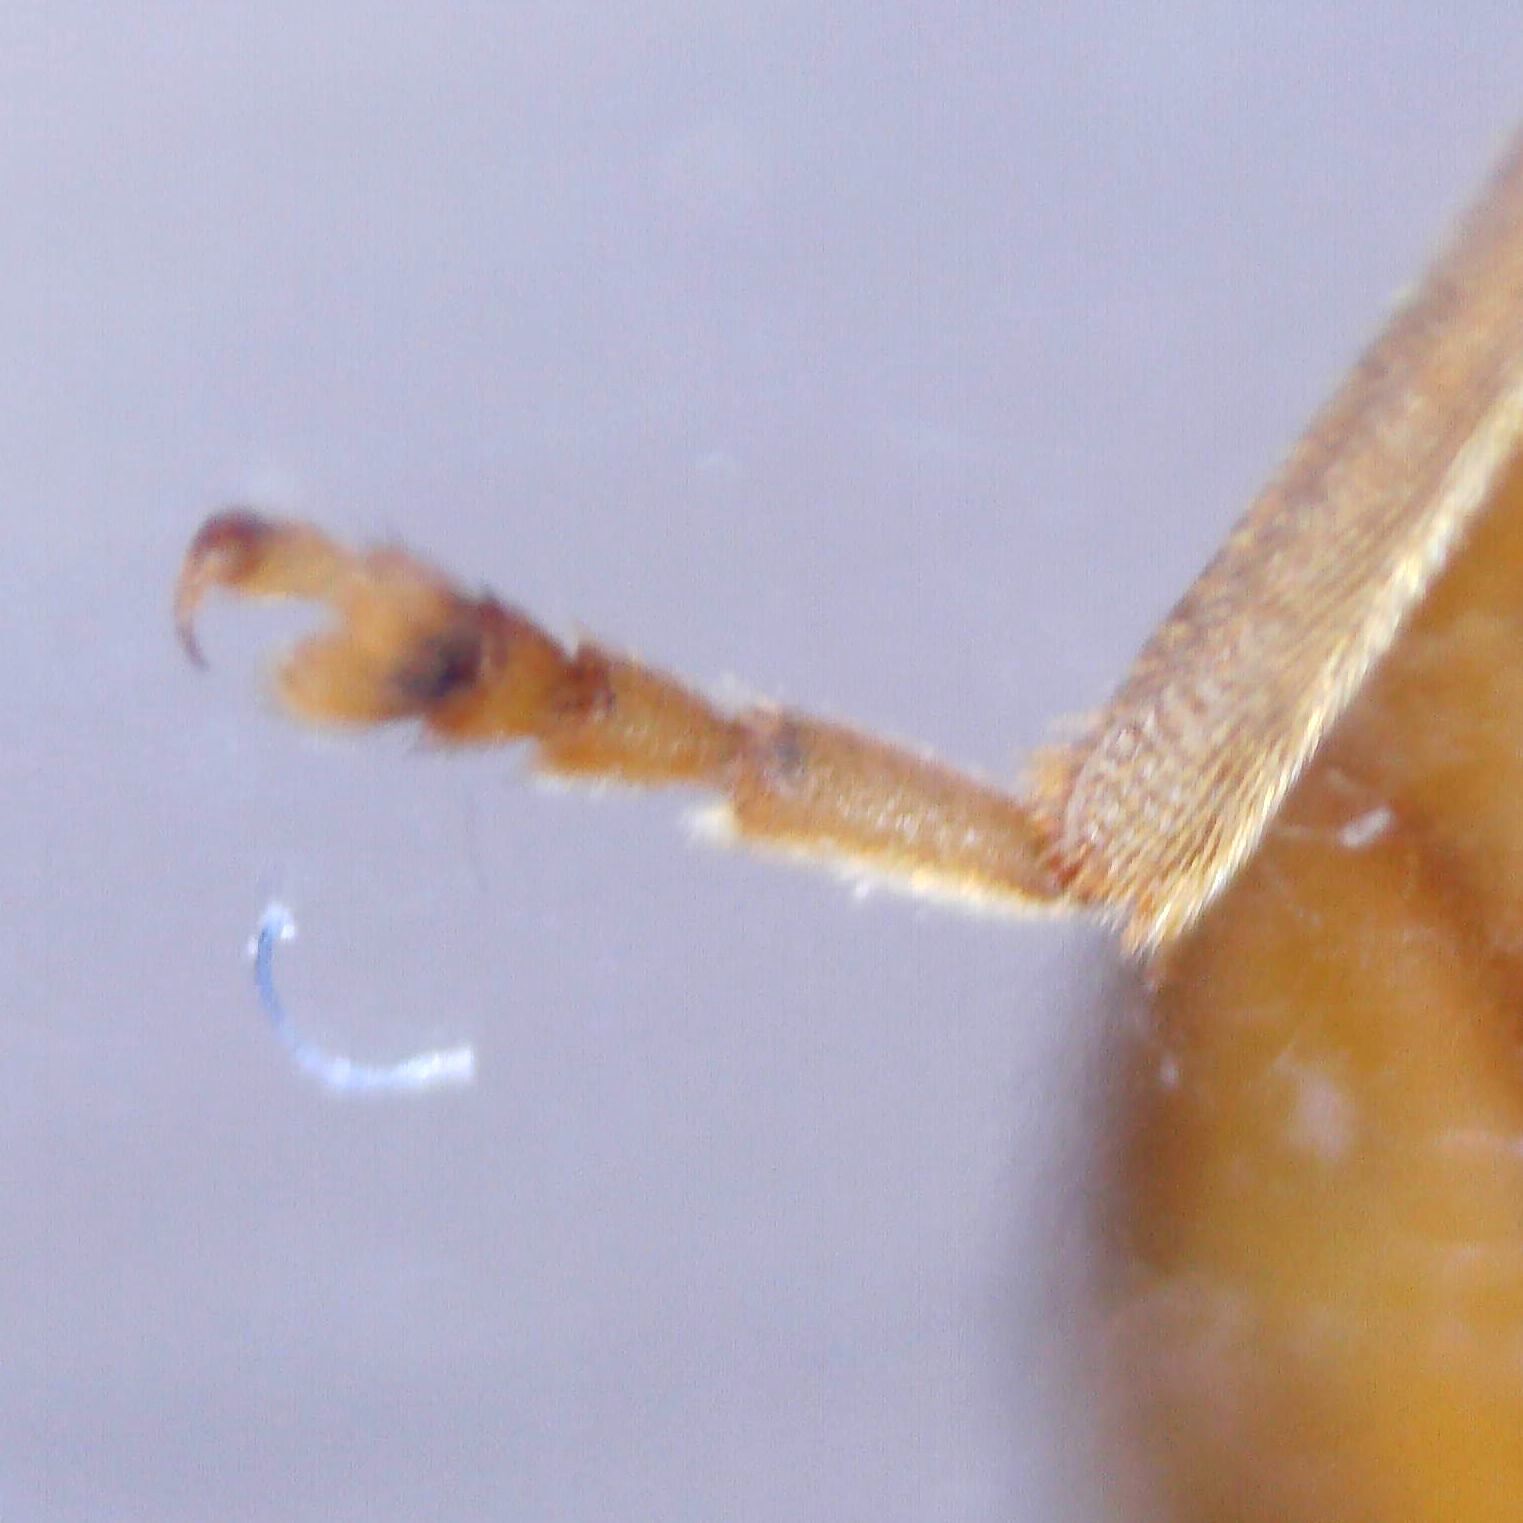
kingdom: Animalia
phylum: Arthropoda
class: Insecta
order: Coleoptera
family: Scirtidae
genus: Microcara
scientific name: Microcara testacea
